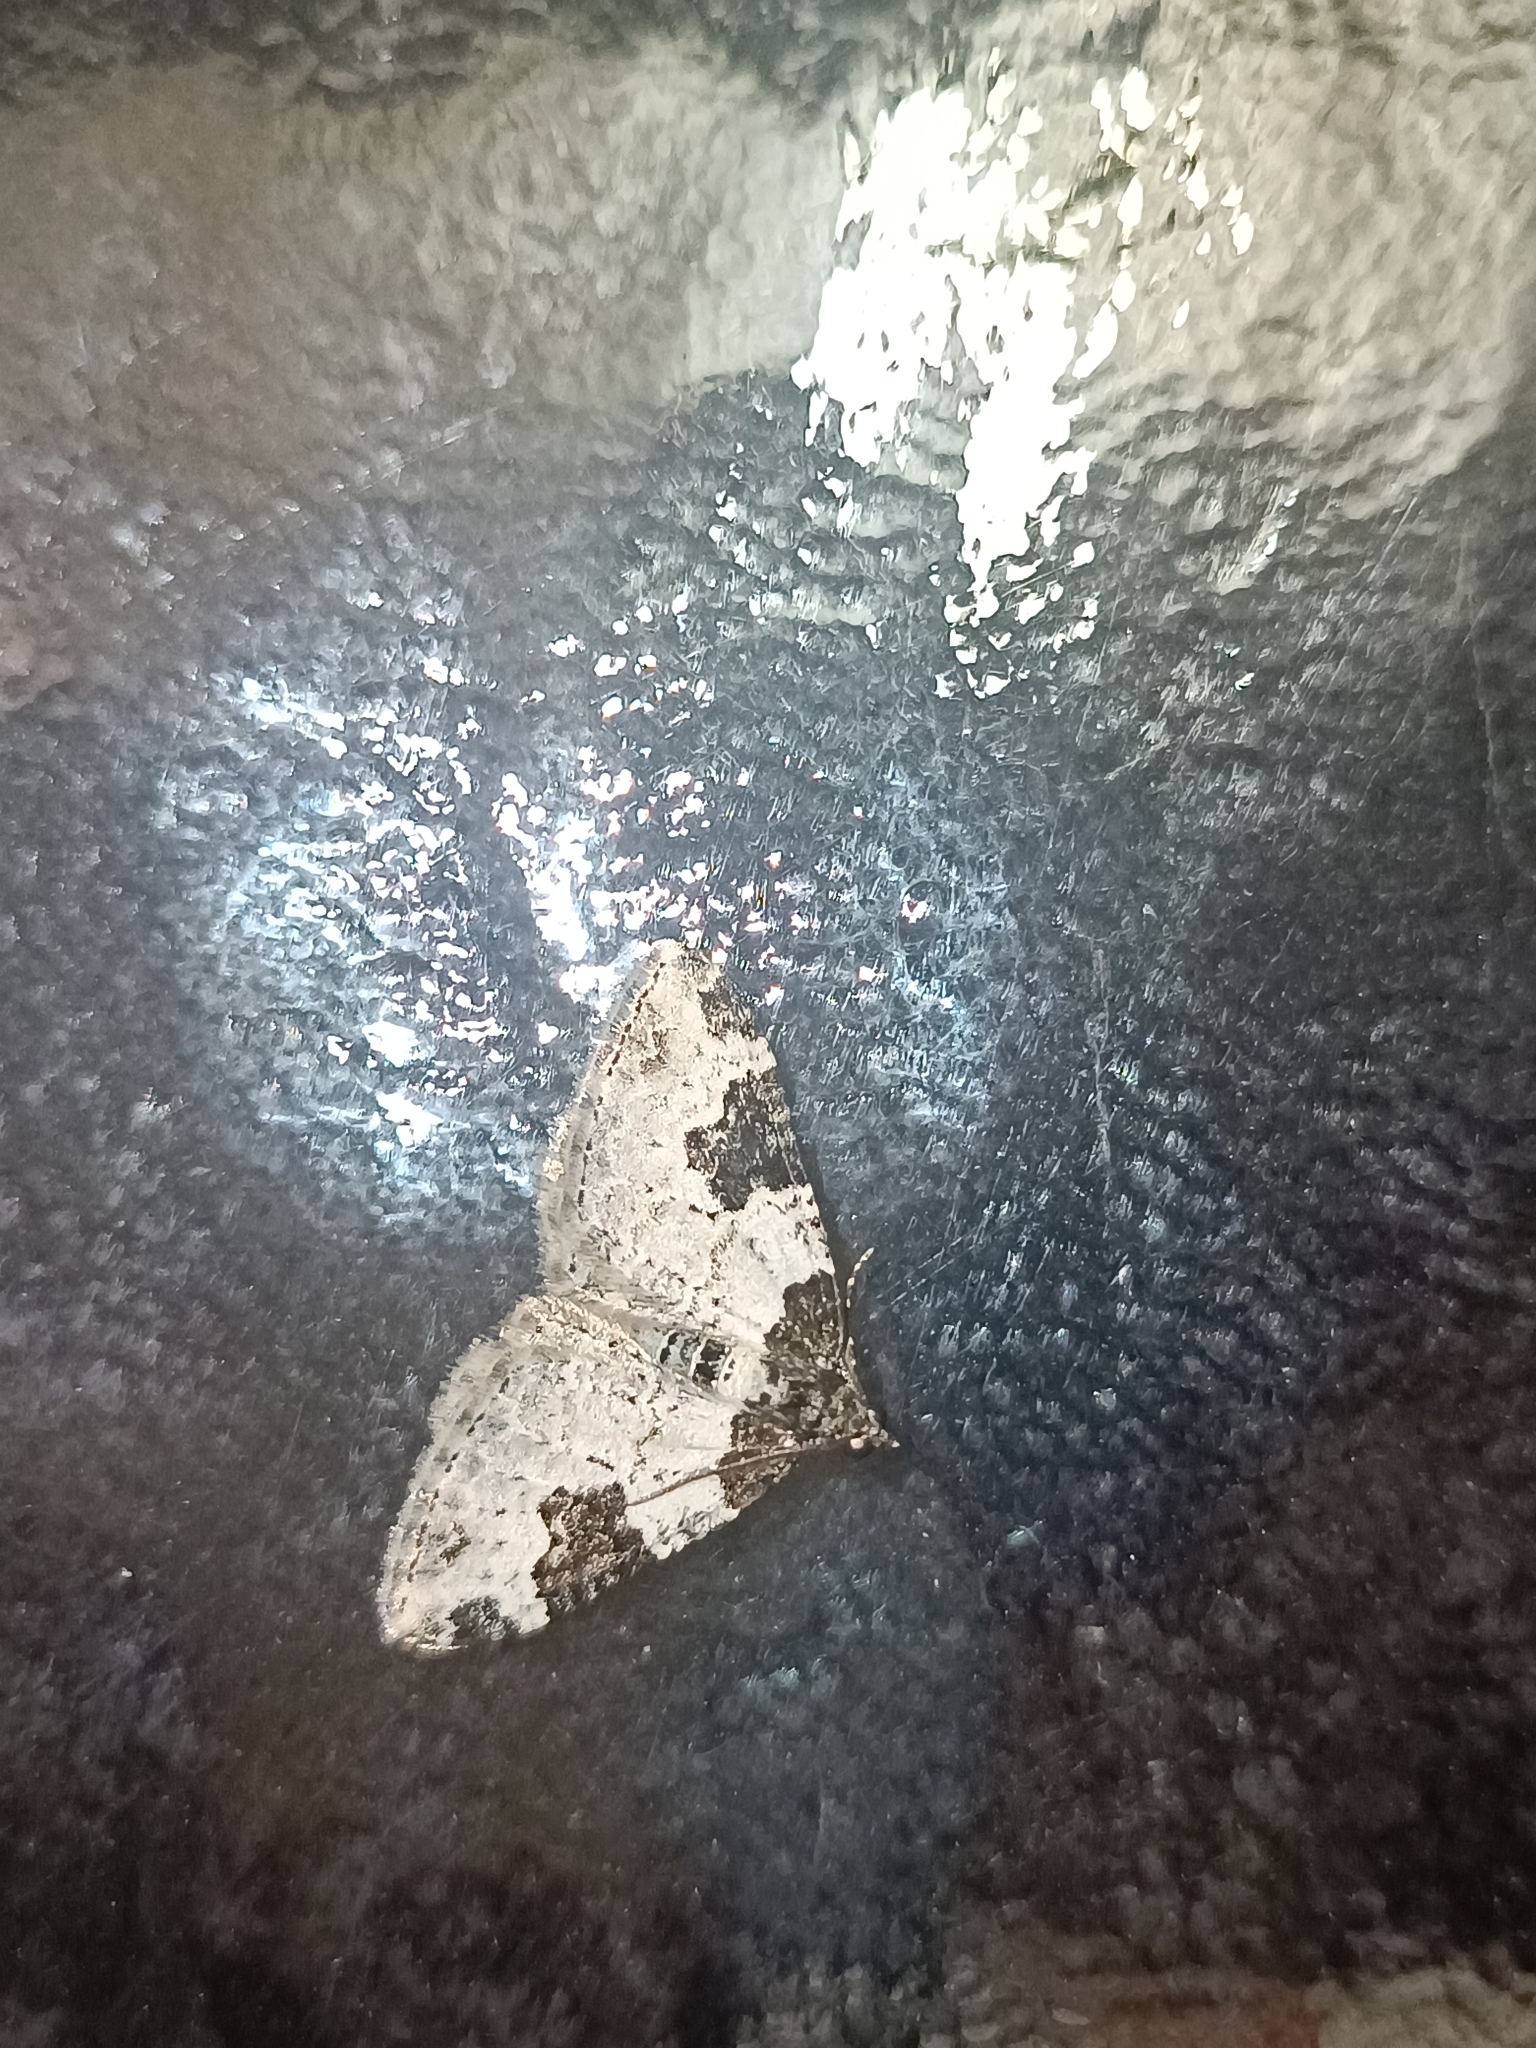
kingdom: Animalia
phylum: Arthropoda
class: Insecta
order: Lepidoptera
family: Geometridae
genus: Xanthorhoe
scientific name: Xanthorhoe fluctuata
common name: Garden carpet
